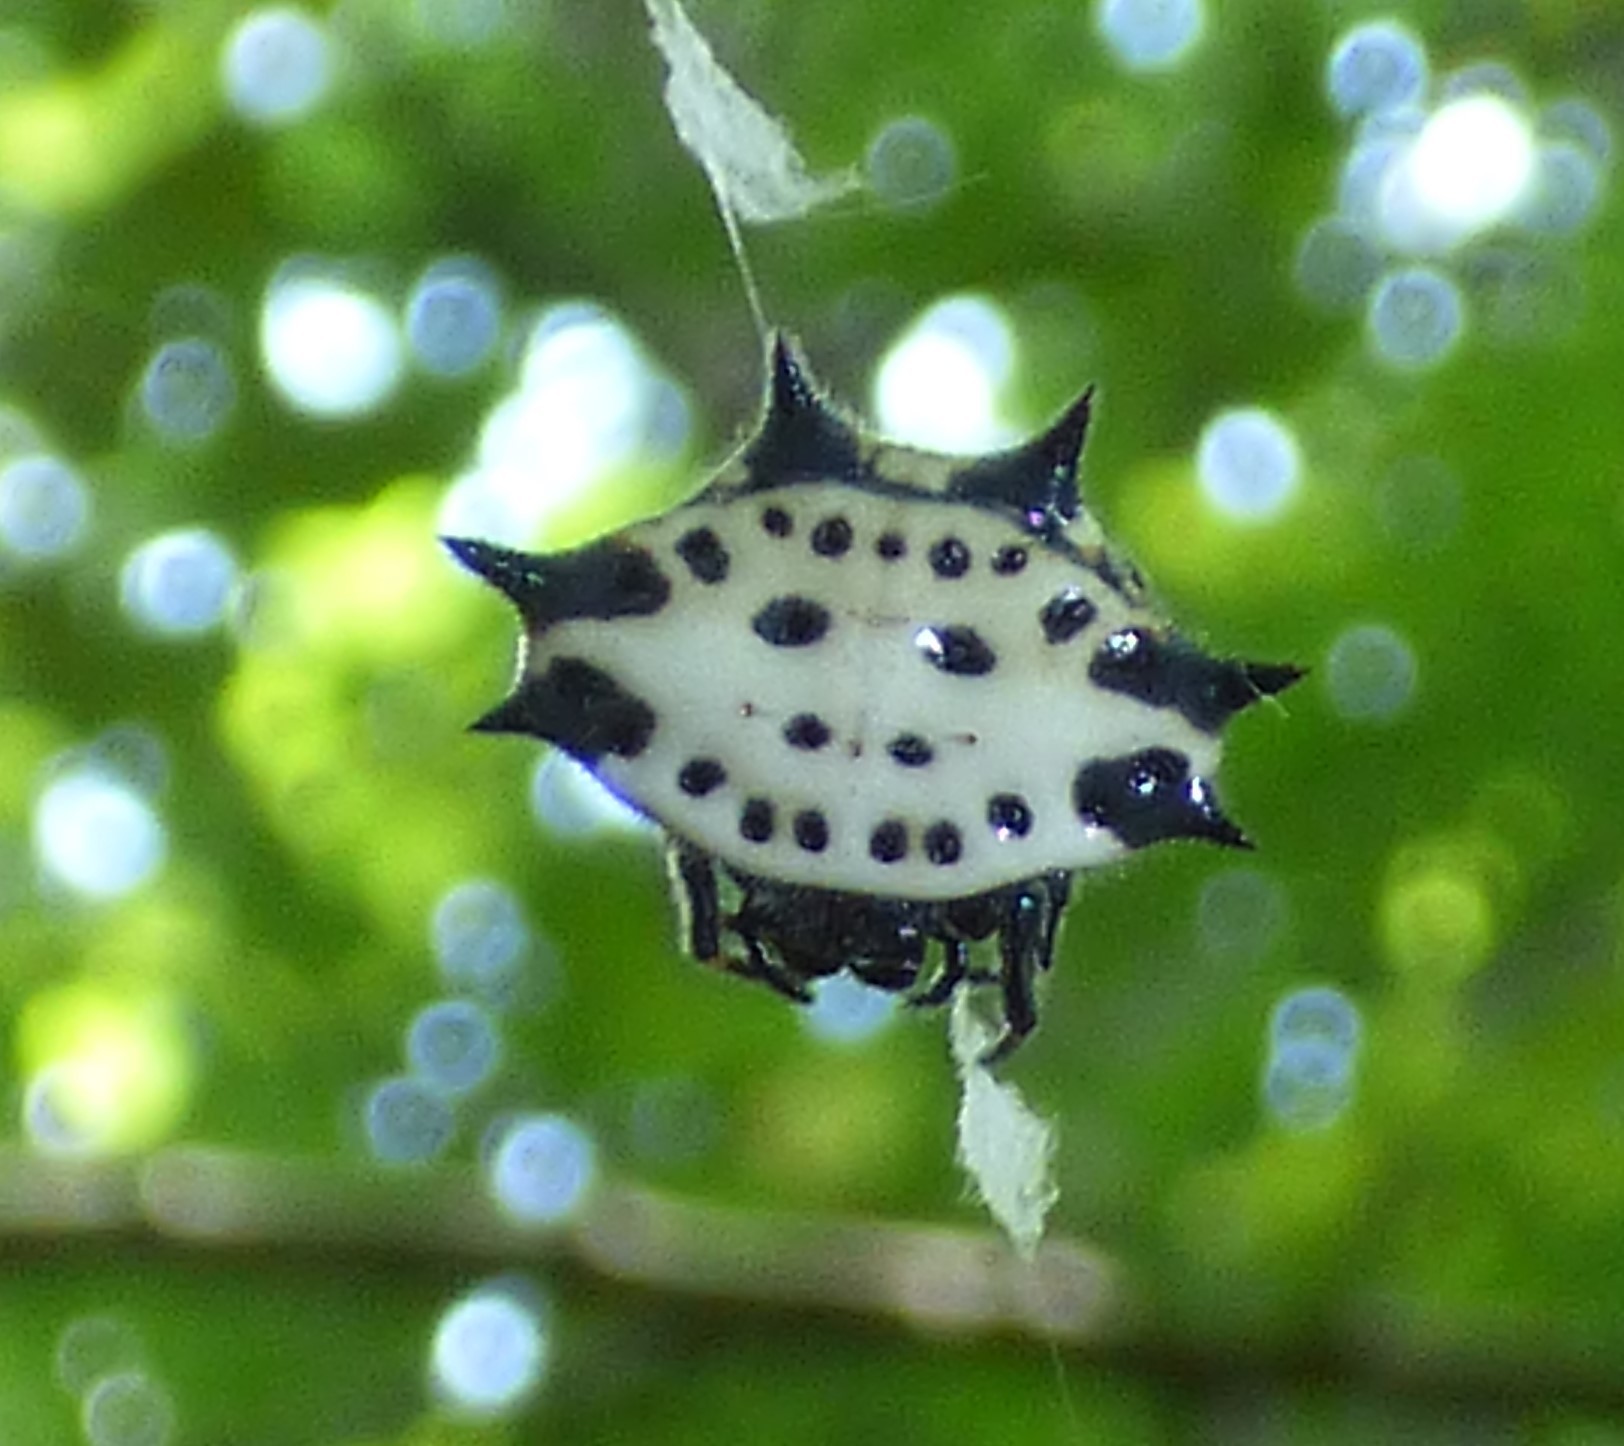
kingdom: Animalia
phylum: Arthropoda
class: Arachnida
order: Araneae
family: Araneidae
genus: Gasteracantha
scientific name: Gasteracantha cancriformis
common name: Orb weavers
